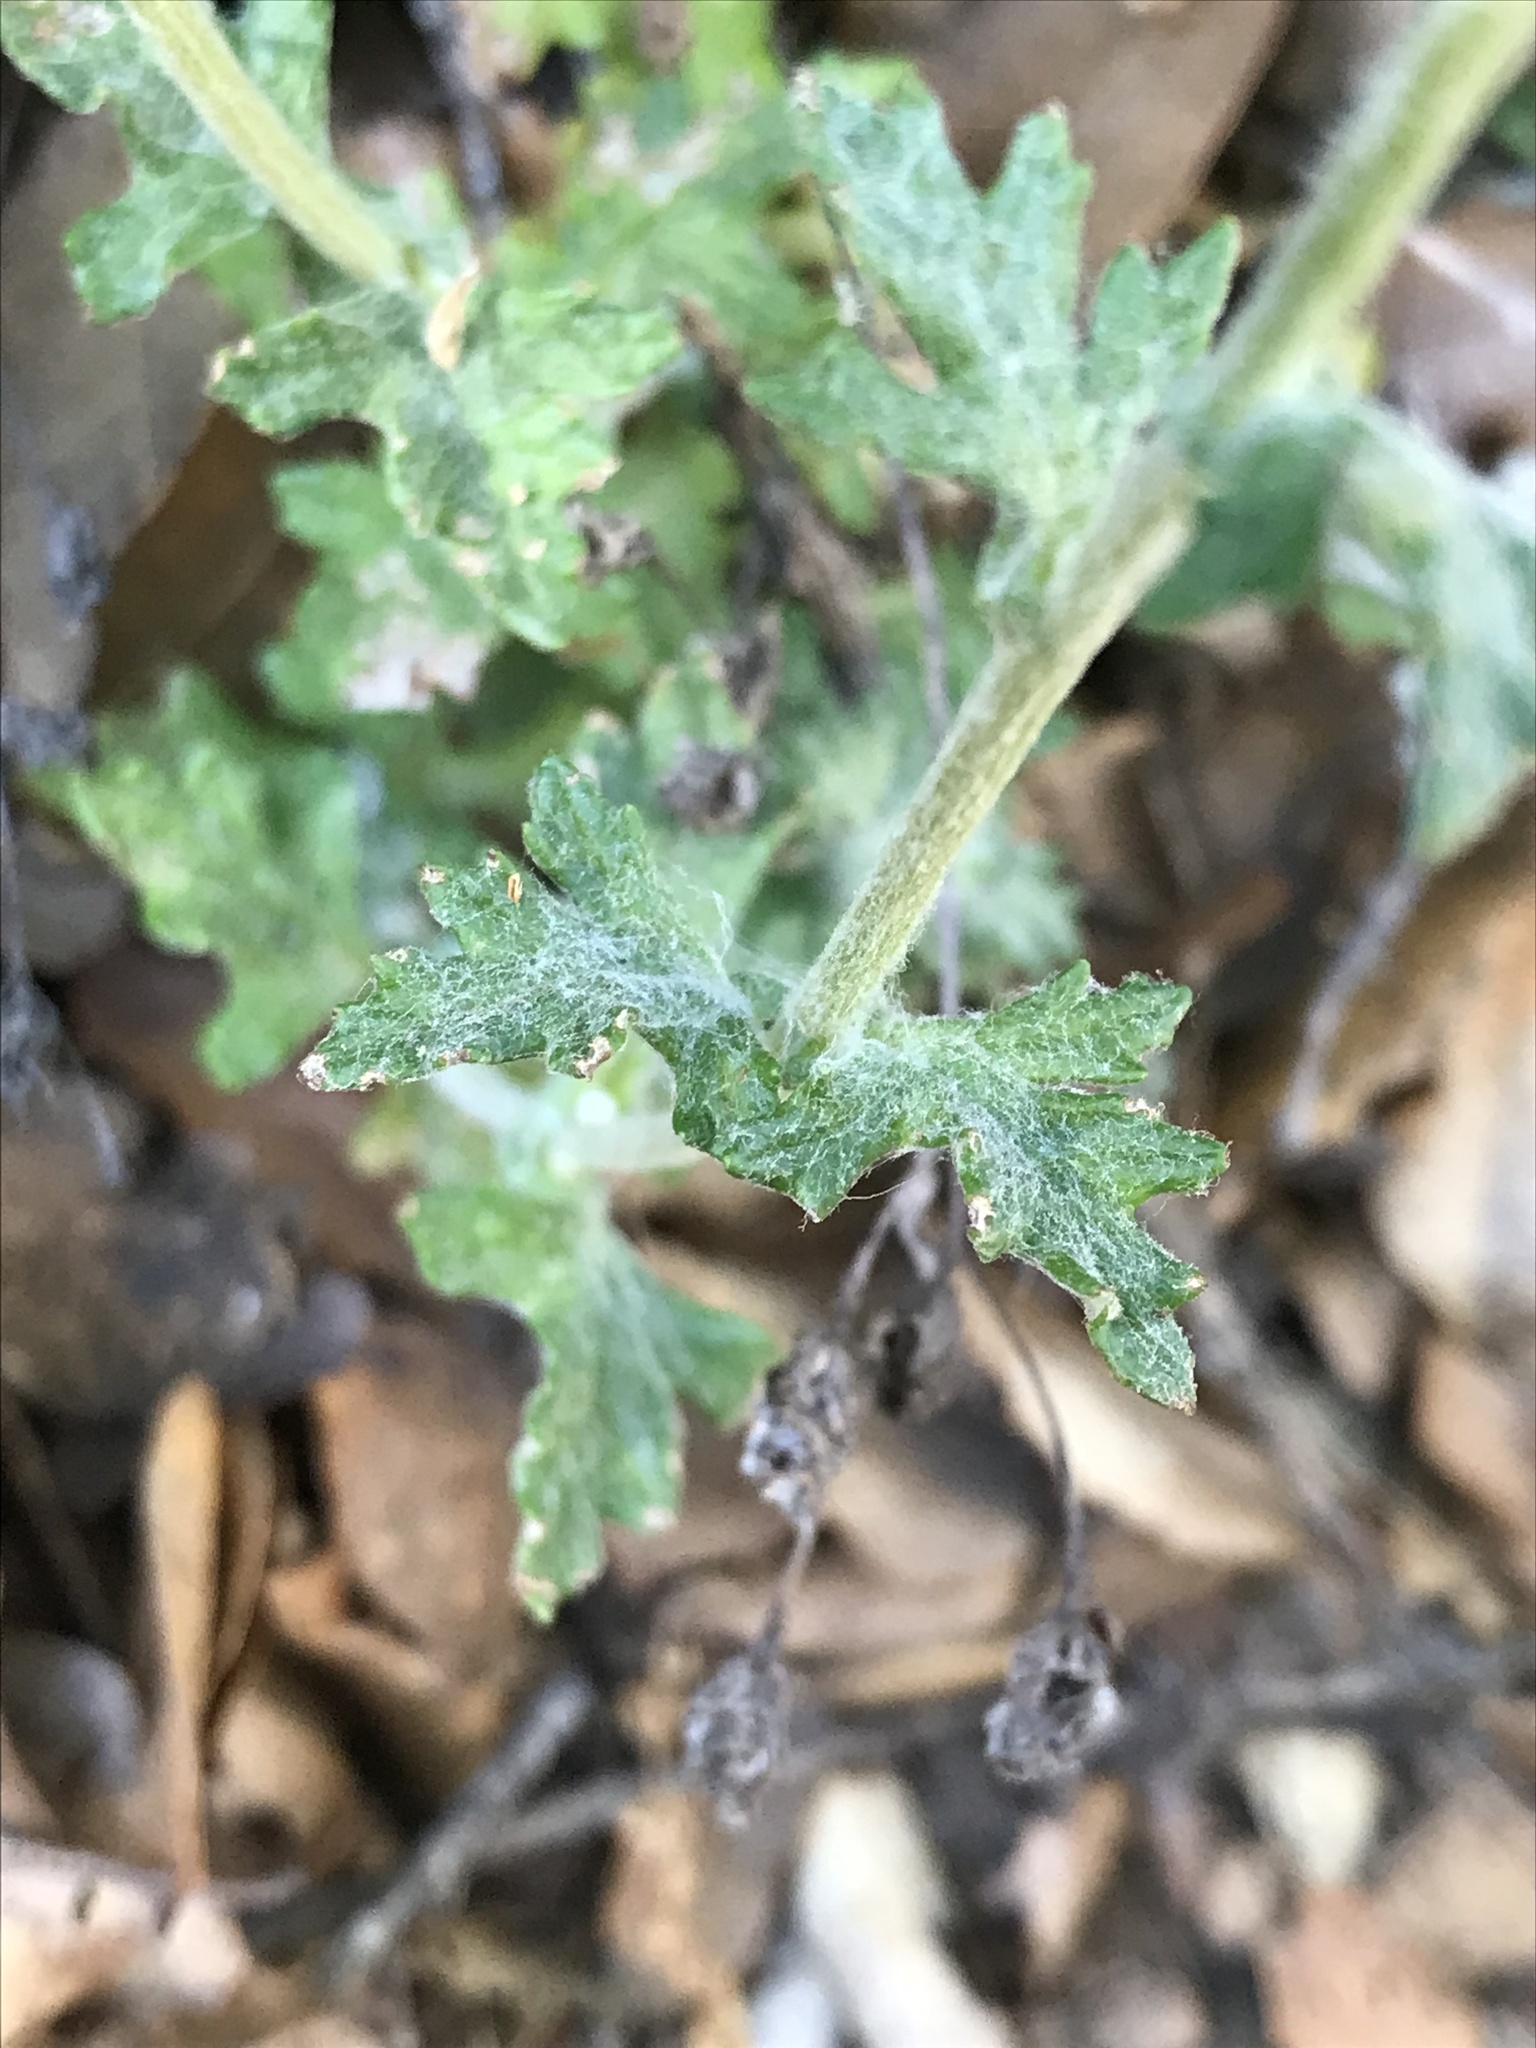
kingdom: Plantae
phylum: Tracheophyta
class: Magnoliopsida
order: Asterales
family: Asteraceae
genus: Eriophyllum
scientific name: Eriophyllum lanatum
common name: Common woolly-sunflower
